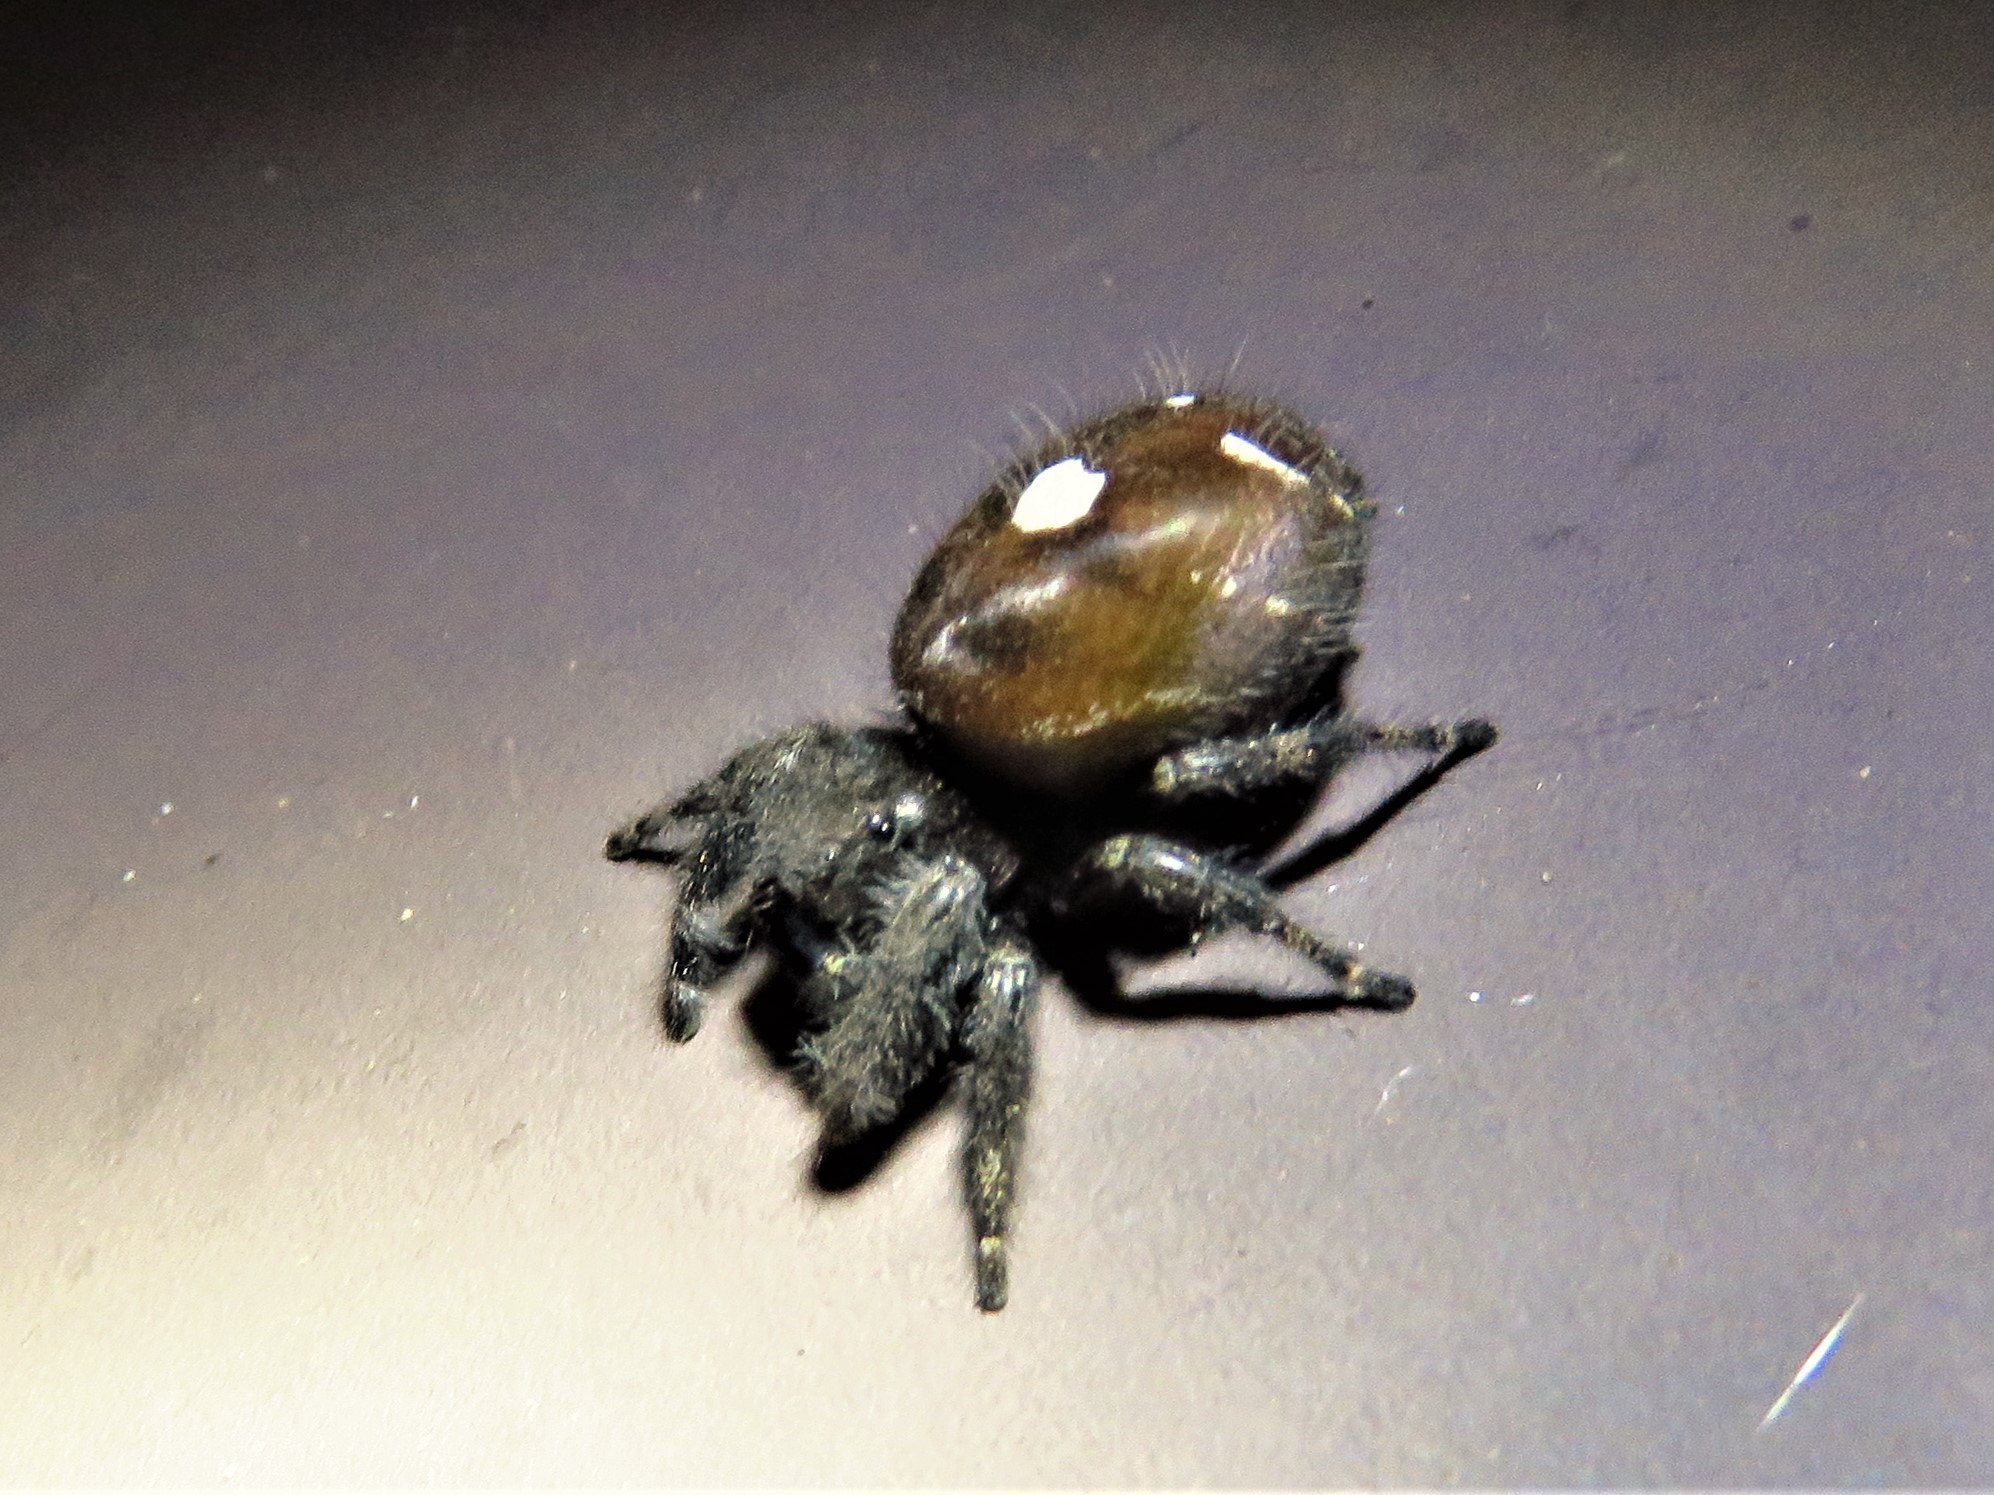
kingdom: Animalia
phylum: Arthropoda
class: Arachnida
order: Araneae
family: Salticidae
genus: Phidippus
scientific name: Phidippus audax
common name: Bold jumper
